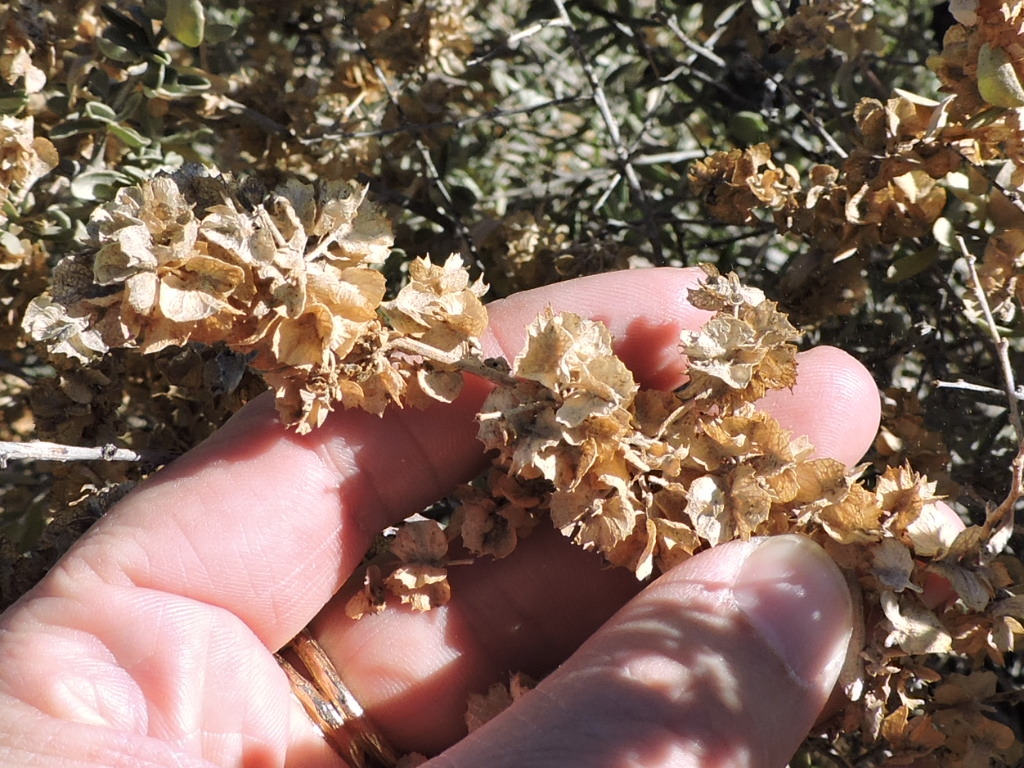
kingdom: Plantae
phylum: Tracheophyta
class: Magnoliopsida
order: Caryophyllales
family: Amaranthaceae
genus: Atriplex
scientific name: Atriplex canescens
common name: Four-wing saltbush
